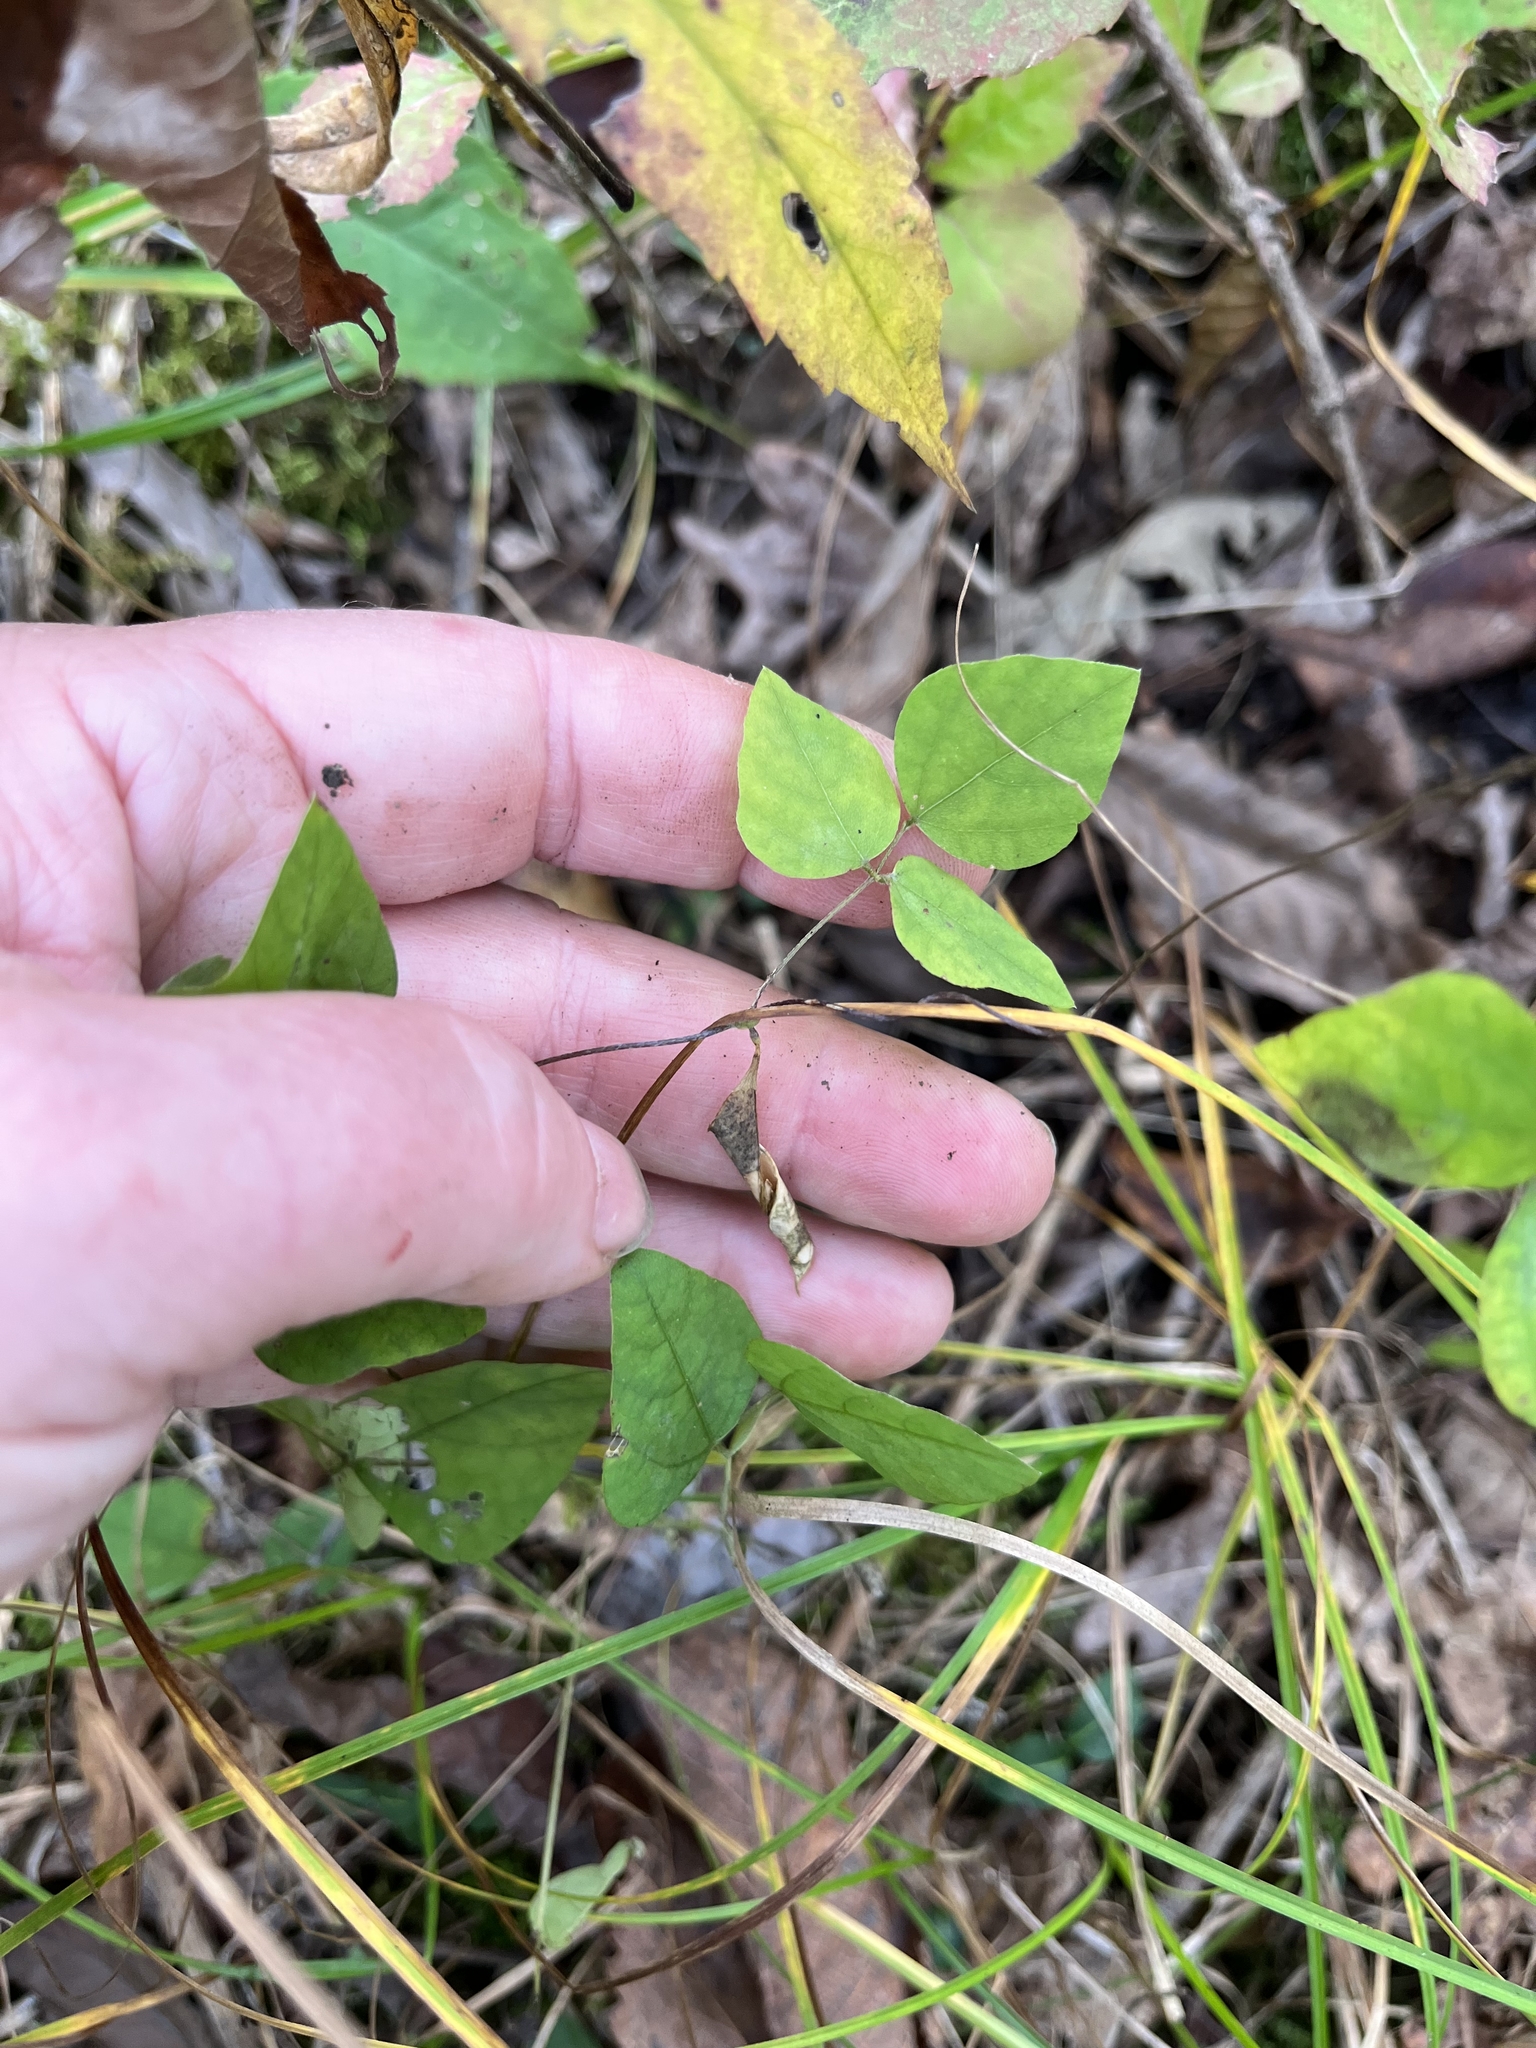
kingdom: Plantae
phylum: Tracheophyta
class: Magnoliopsida
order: Fabales
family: Fabaceae
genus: Amphicarpaea
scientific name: Amphicarpaea bracteata
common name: American hog peanut
